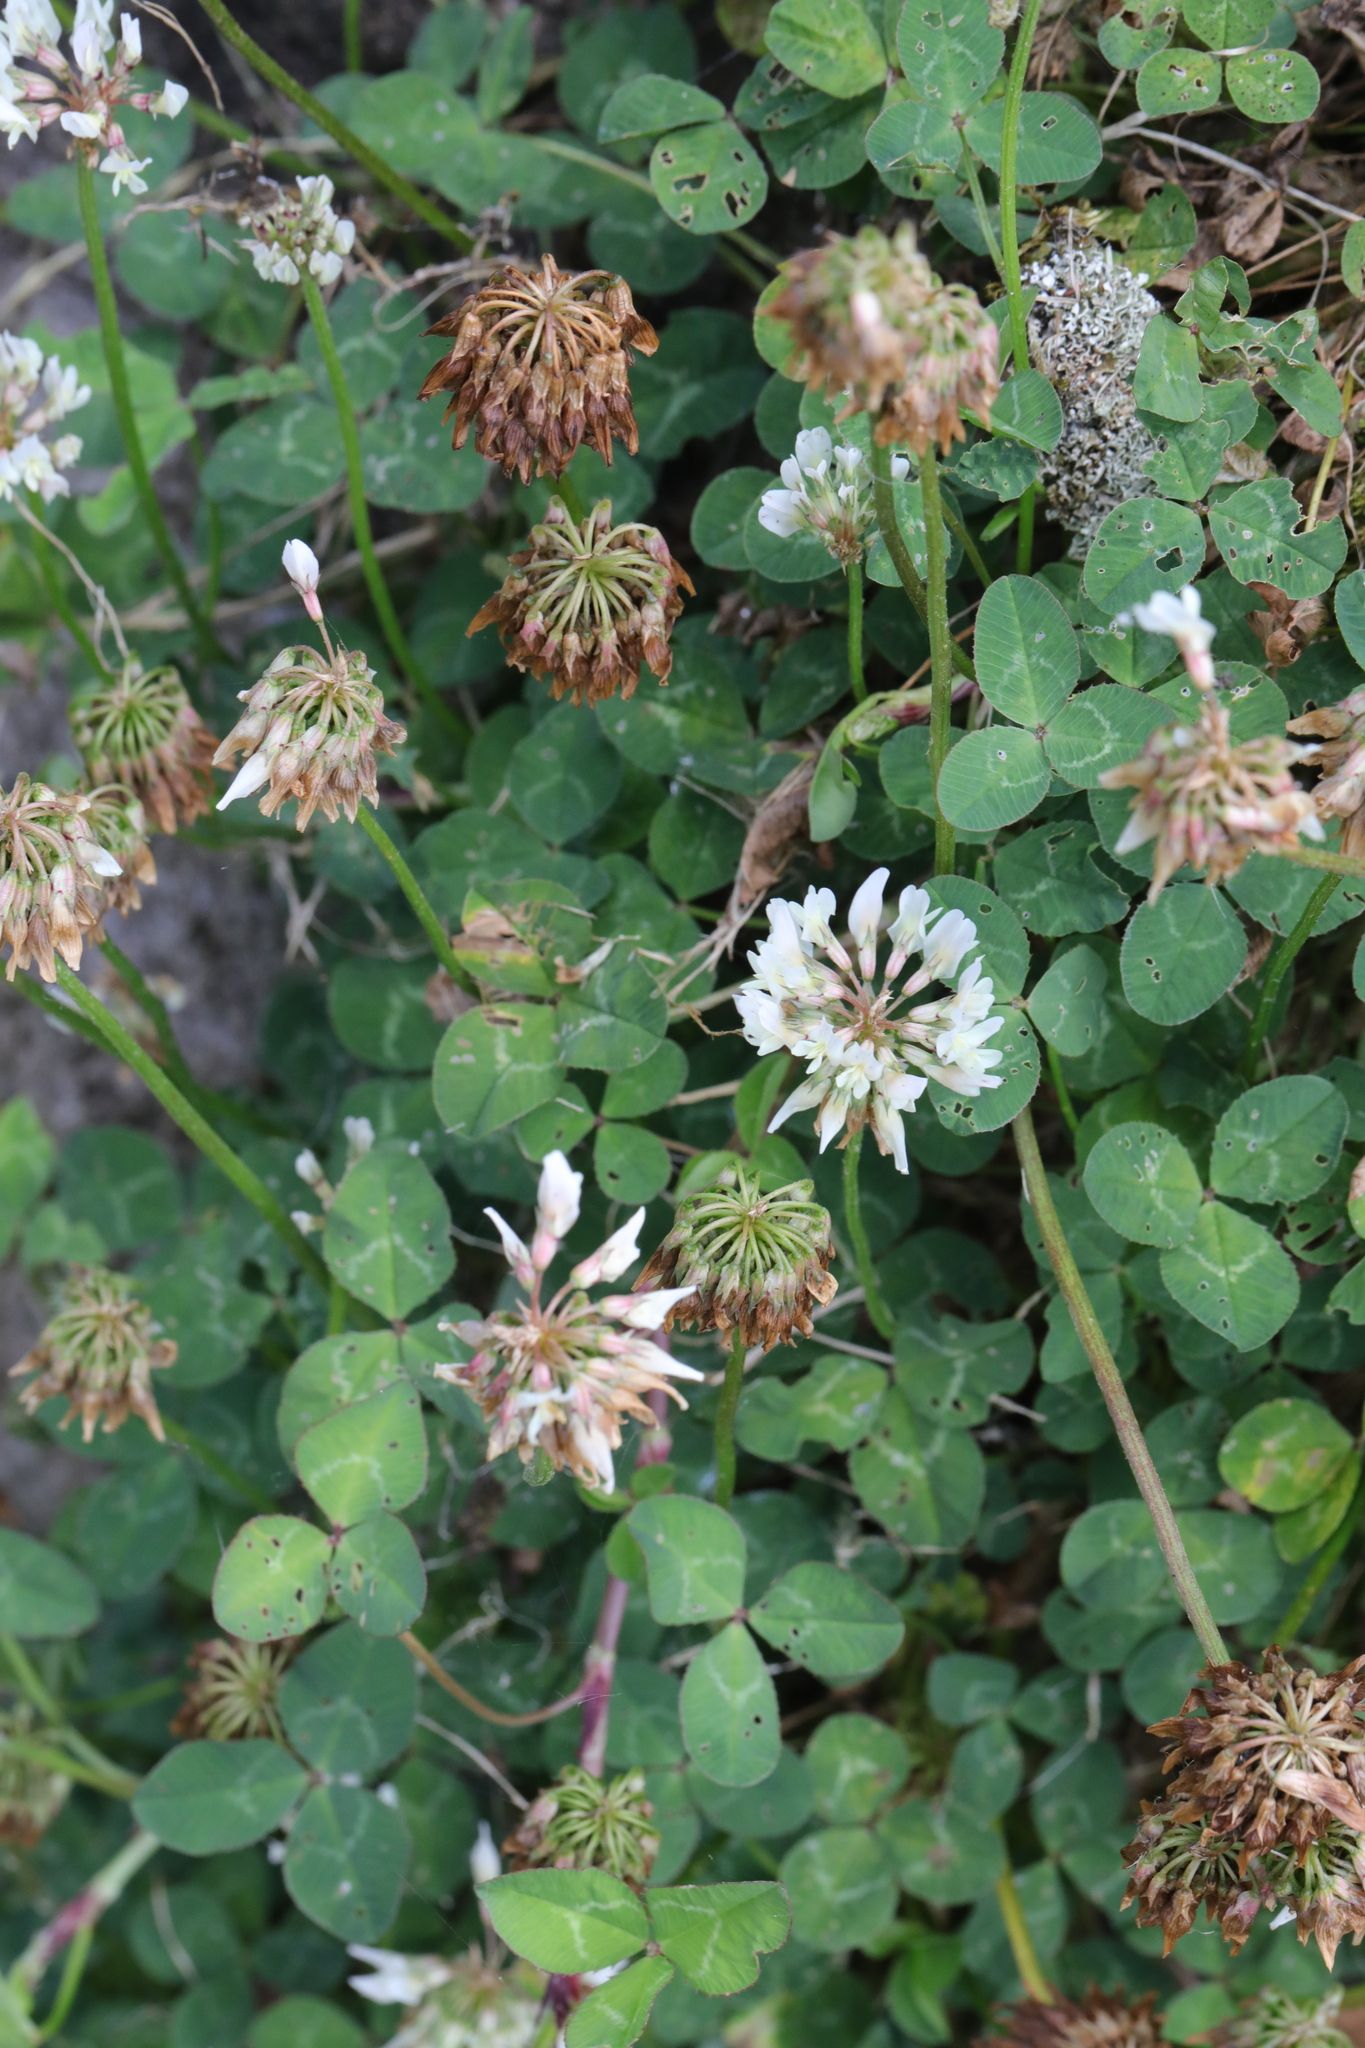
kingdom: Plantae
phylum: Tracheophyta
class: Magnoliopsida
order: Fabales
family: Fabaceae
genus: Trifolium
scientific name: Trifolium repens
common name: White clover
